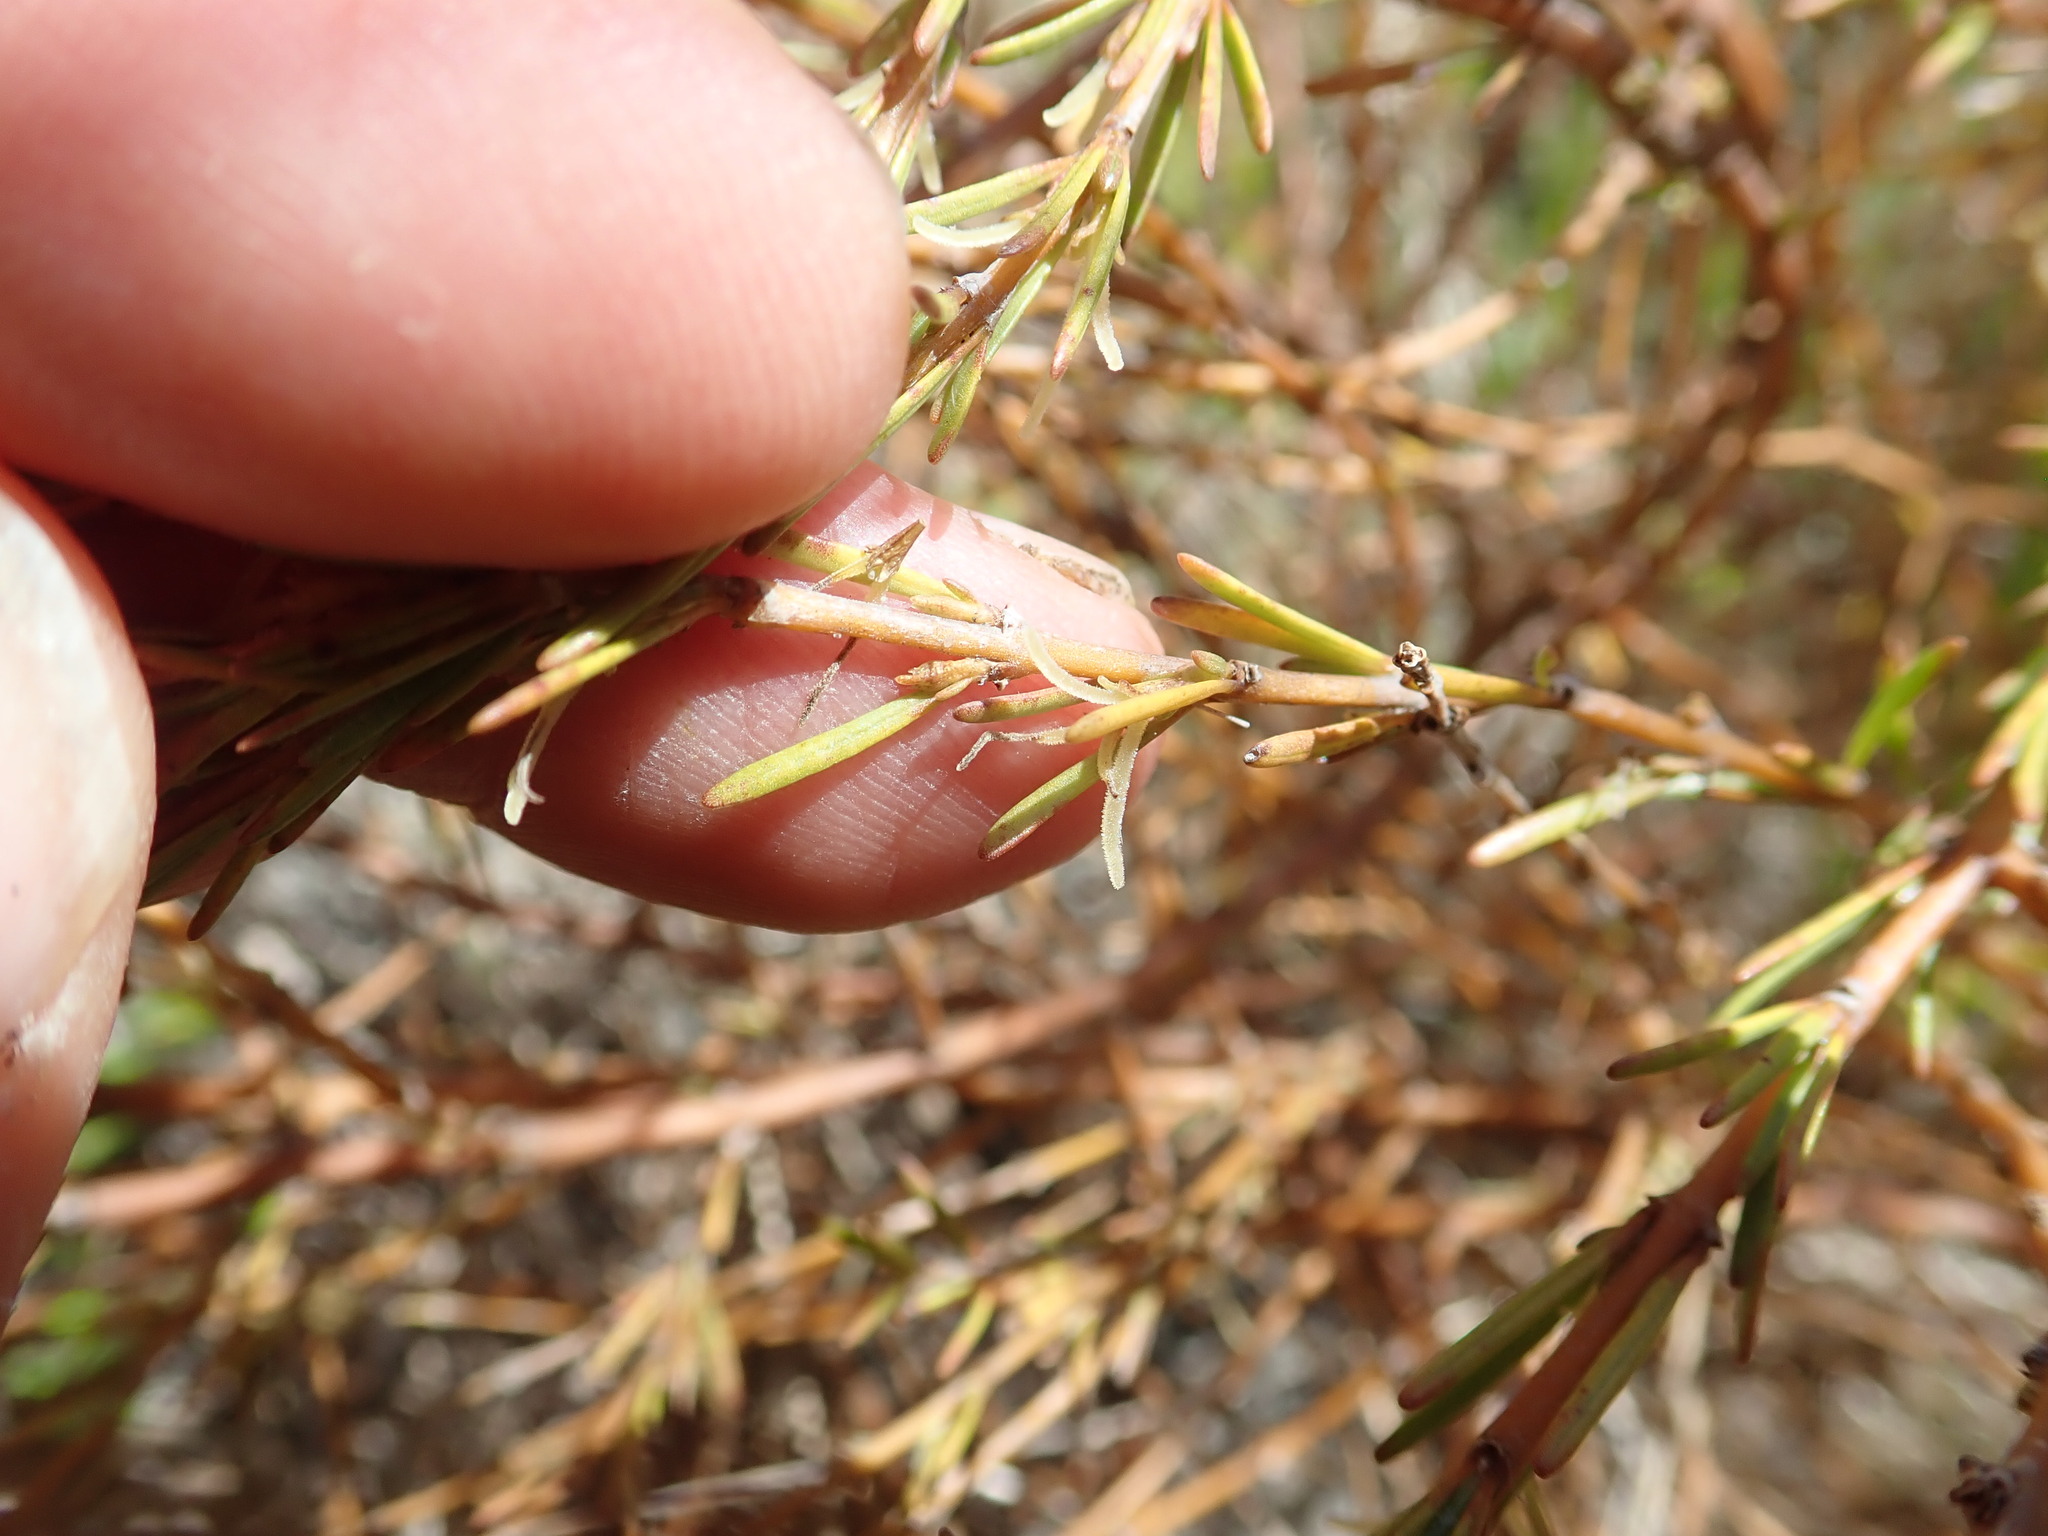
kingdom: Plantae
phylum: Tracheophyta
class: Magnoliopsida
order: Gentianales
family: Rubiaceae
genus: Coprosma
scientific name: Coprosma acerosa
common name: Sand coprosma
